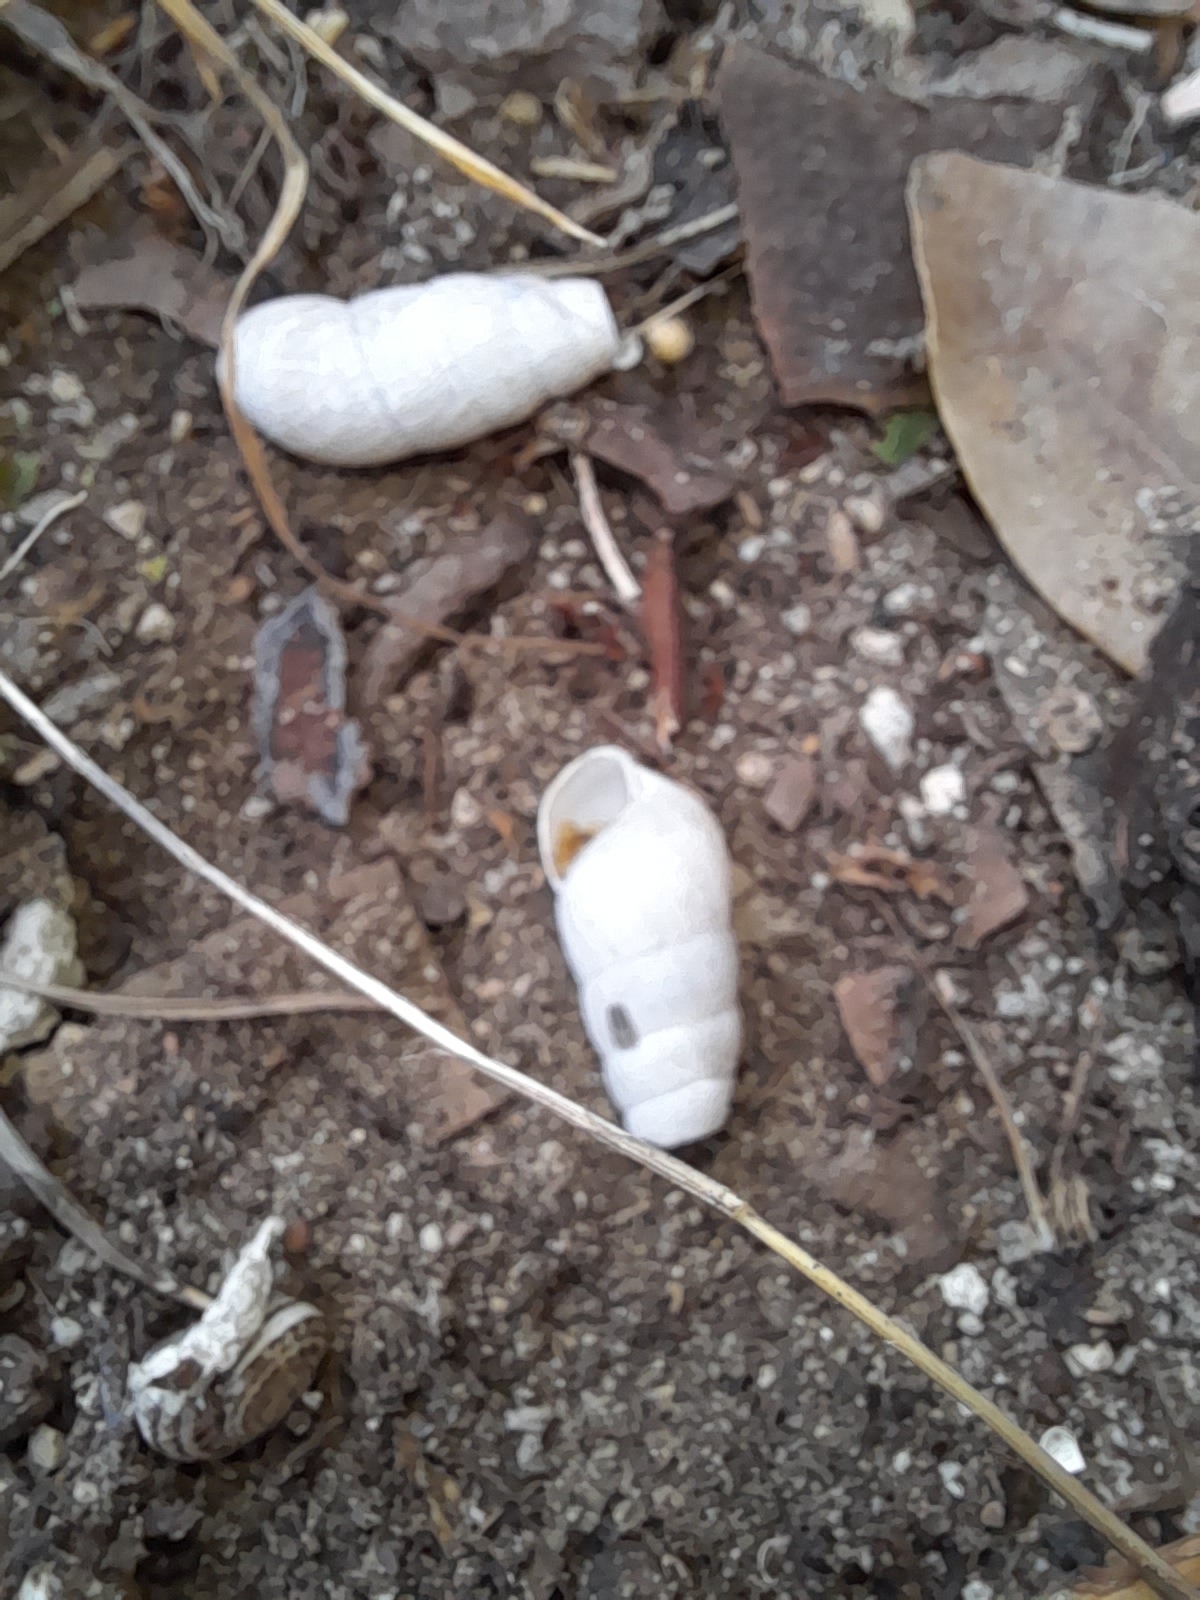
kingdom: Animalia
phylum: Mollusca
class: Gastropoda
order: Stylommatophora
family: Achatinidae
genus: Rumina
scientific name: Rumina decollata
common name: Decollate snail
